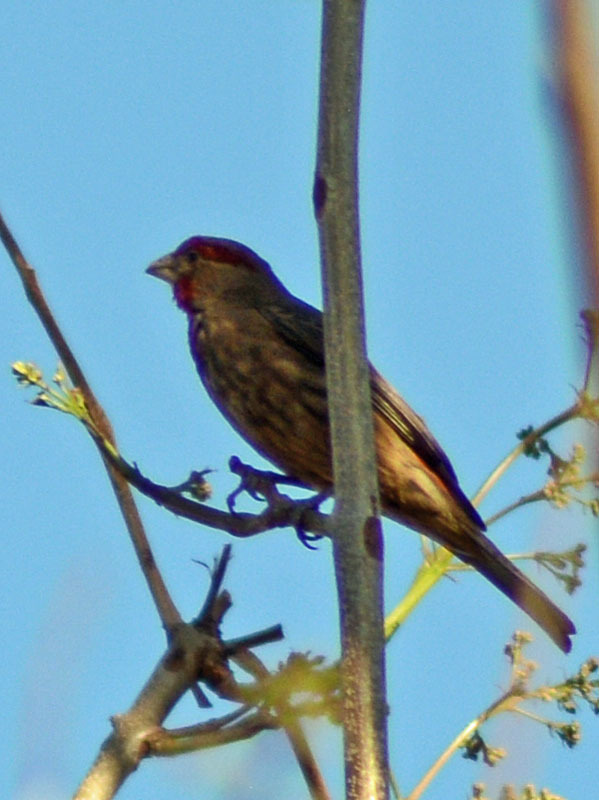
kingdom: Animalia
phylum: Chordata
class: Aves
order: Passeriformes
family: Fringillidae
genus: Haemorhous
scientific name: Haemorhous mexicanus
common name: House finch
